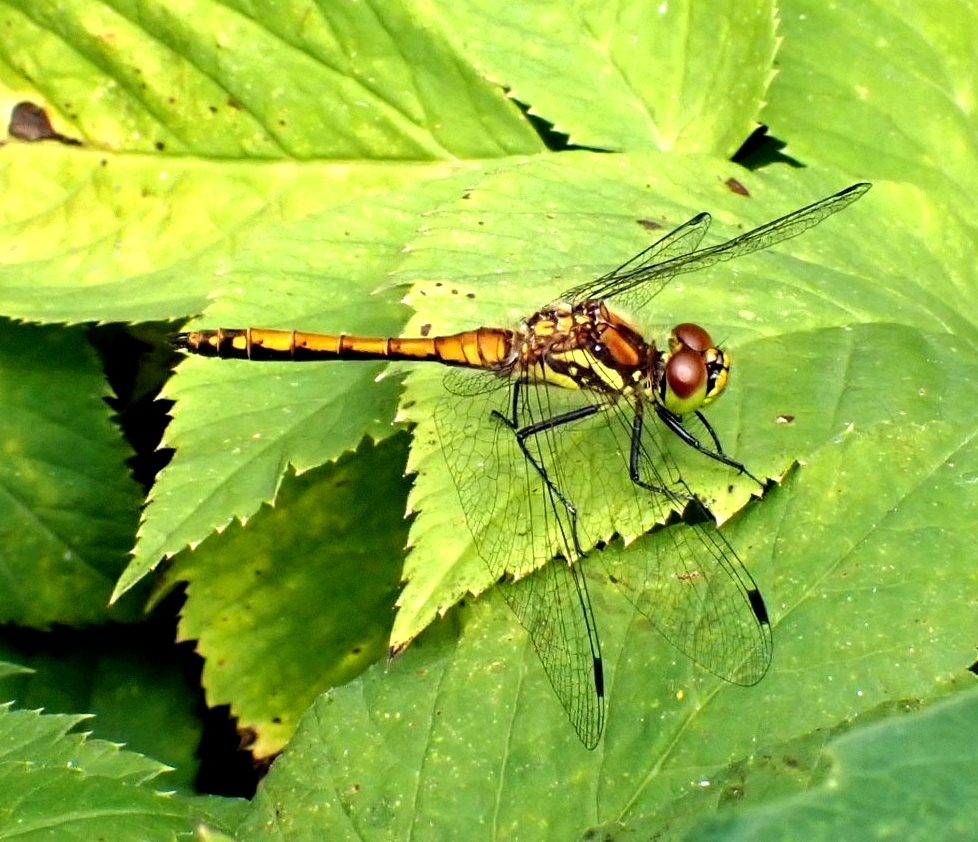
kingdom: Animalia
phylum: Arthropoda
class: Insecta
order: Odonata
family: Libellulidae
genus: Sympetrum
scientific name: Sympetrum danae
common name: Black darter
